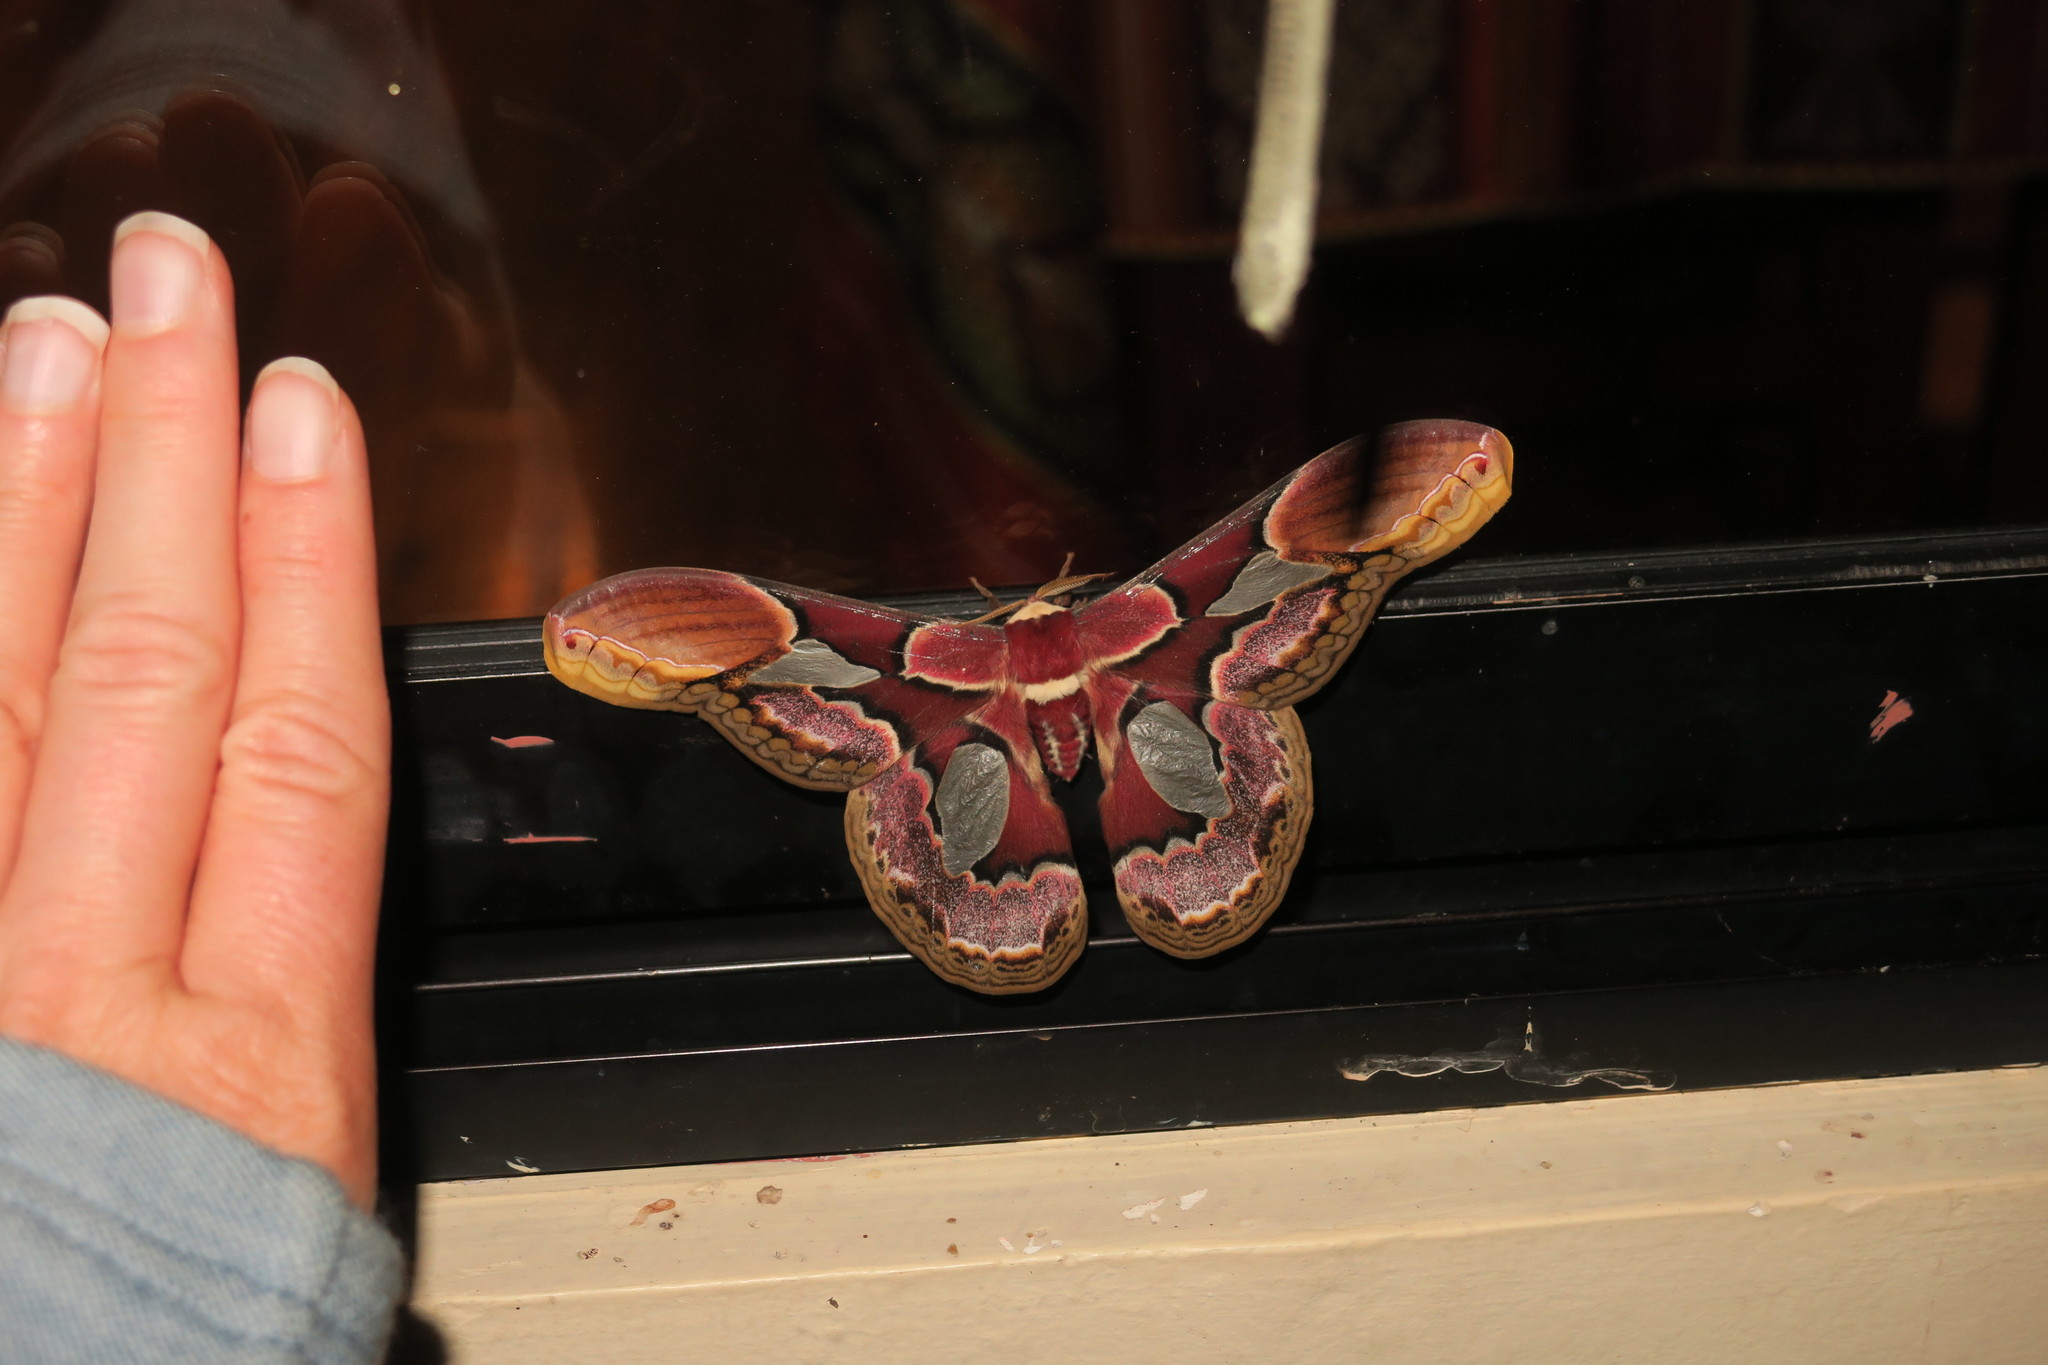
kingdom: Animalia
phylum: Arthropoda
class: Insecta
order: Lepidoptera
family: Saturniidae
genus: Rothschildia
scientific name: Rothschildia erycina
